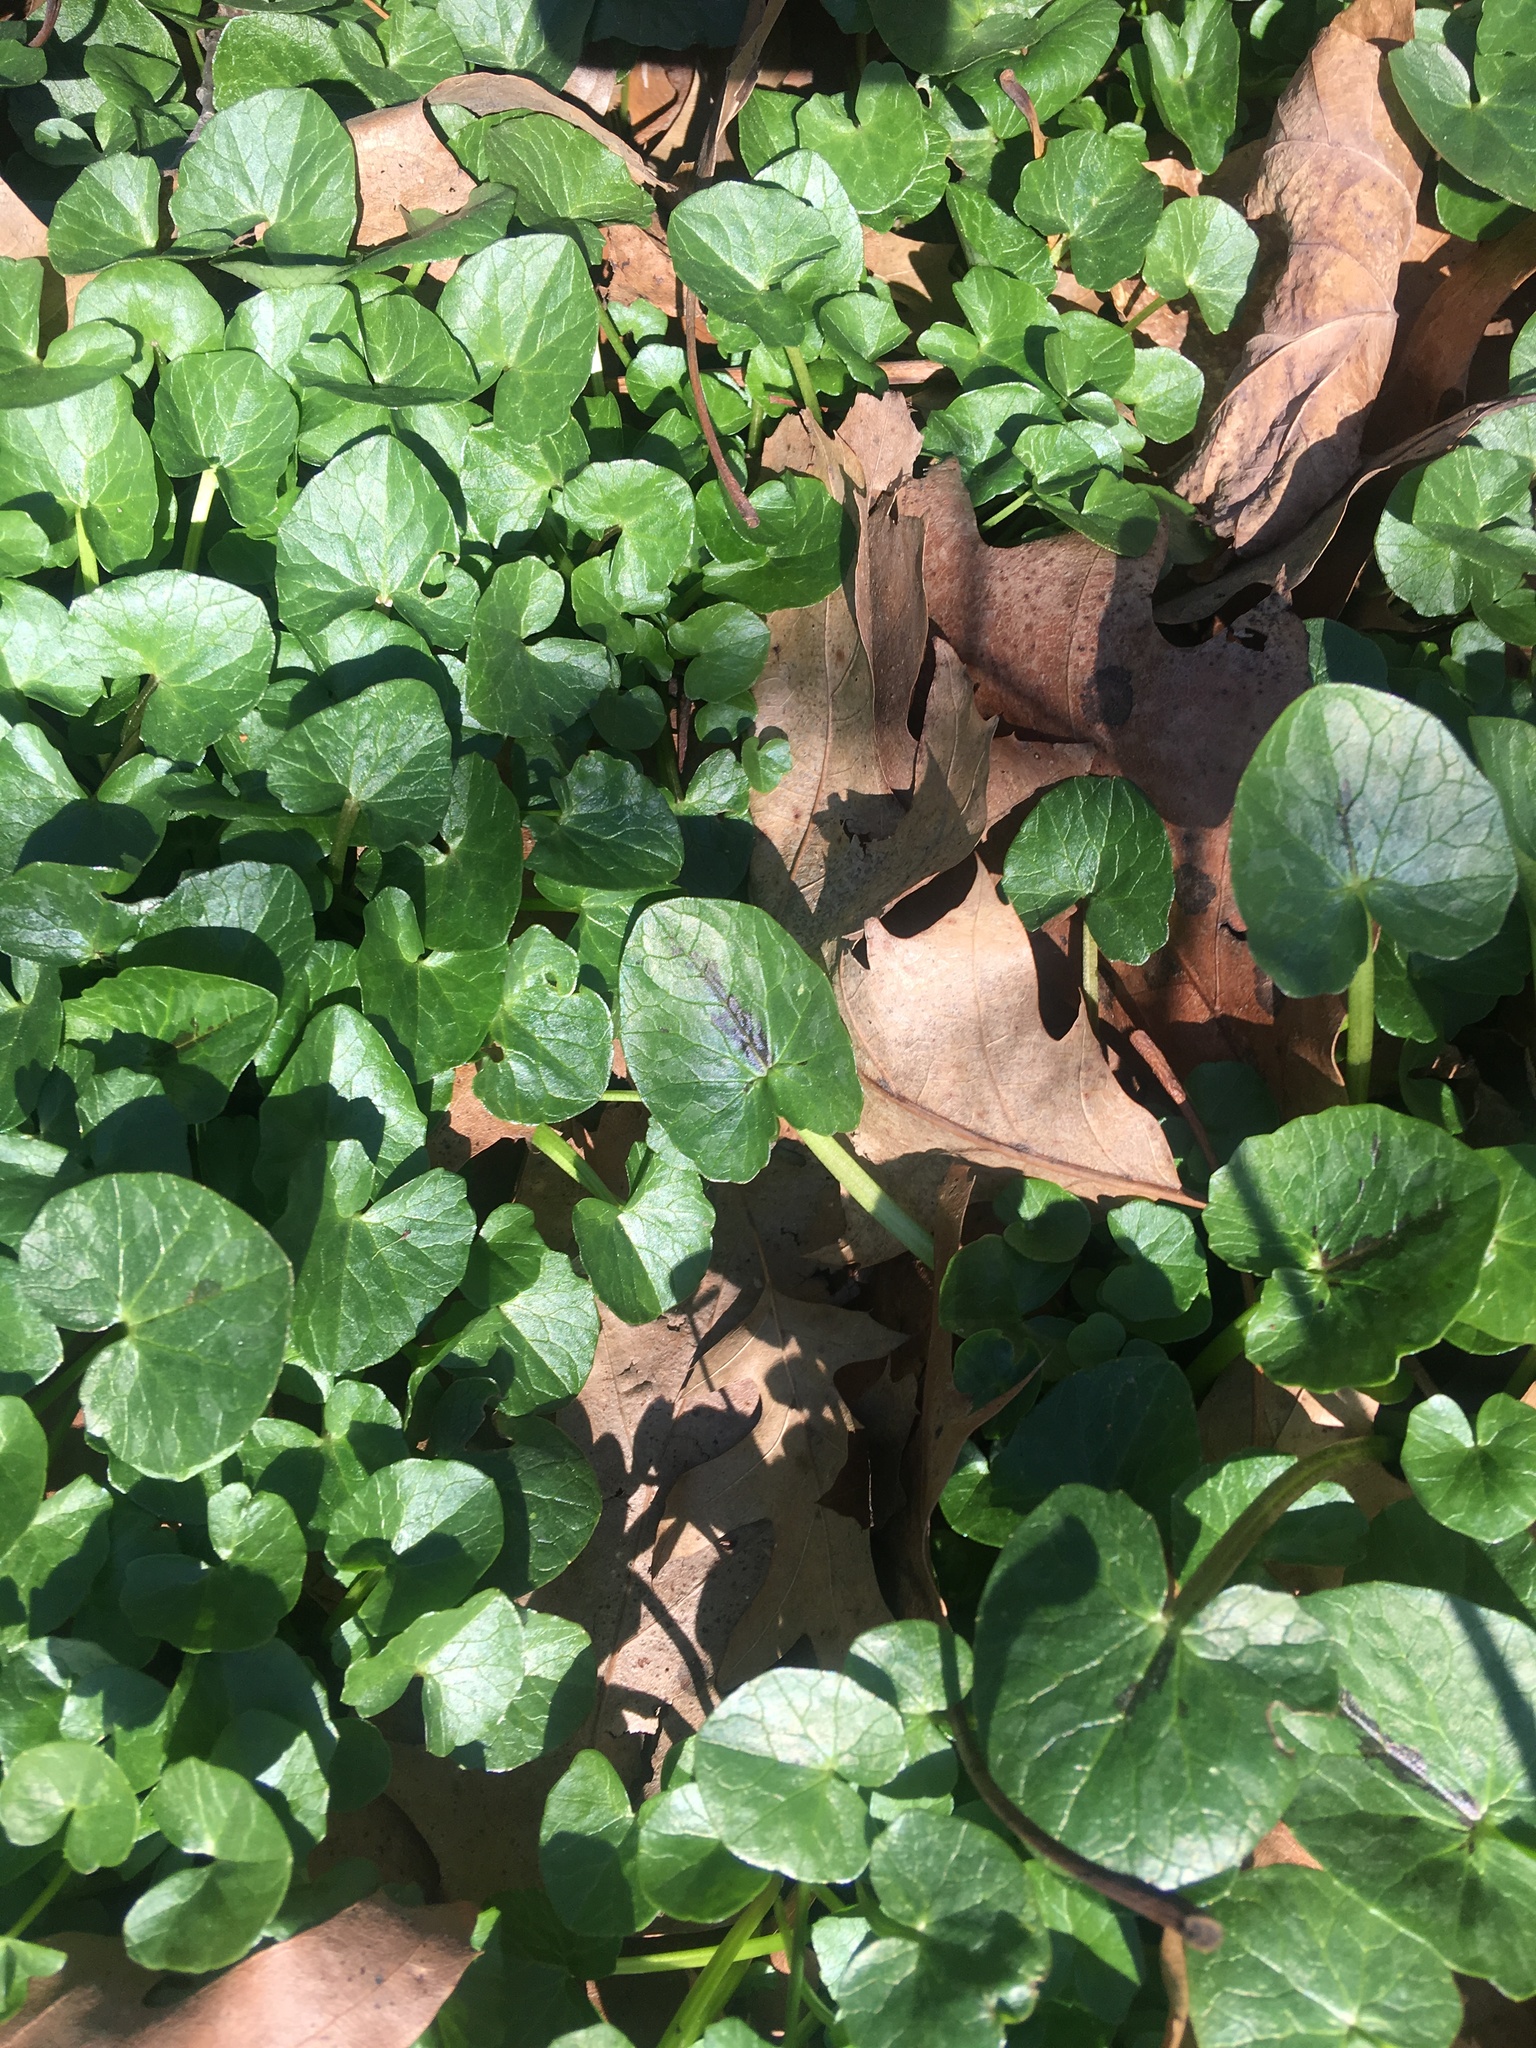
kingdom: Plantae
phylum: Tracheophyta
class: Magnoliopsida
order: Ranunculales
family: Ranunculaceae
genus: Ficaria
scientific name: Ficaria verna
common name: Lesser celandine
